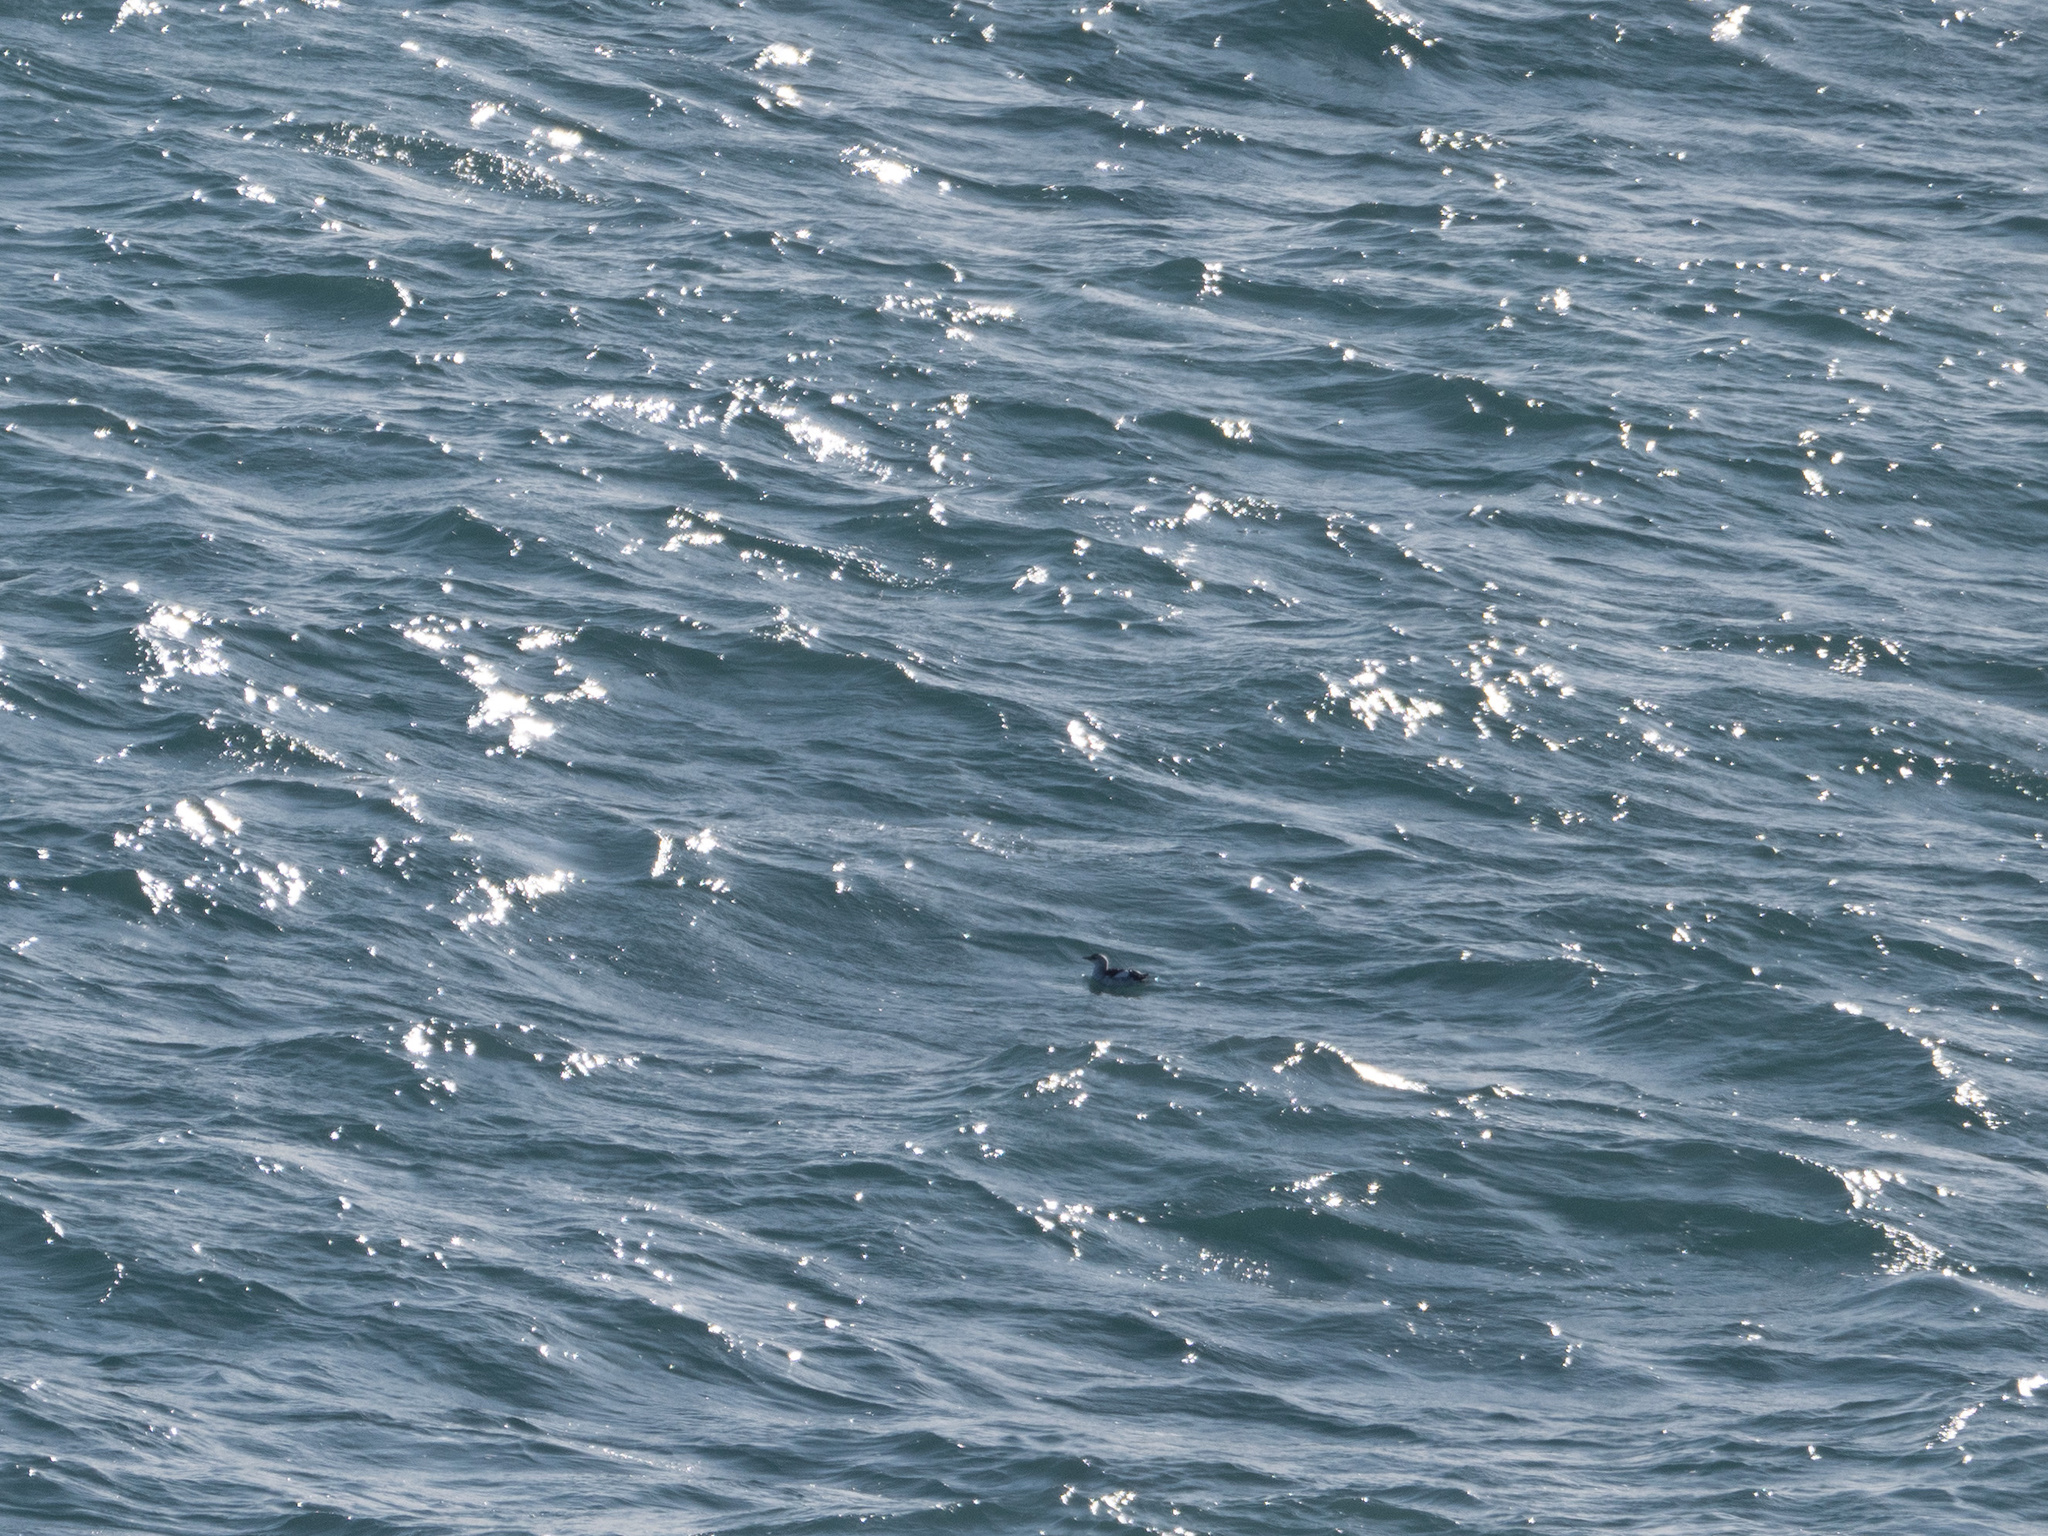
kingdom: Animalia
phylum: Chordata
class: Aves
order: Charadriiformes
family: Alcidae
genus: Cepphus
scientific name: Cepphus grylle
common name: Black guillemot
